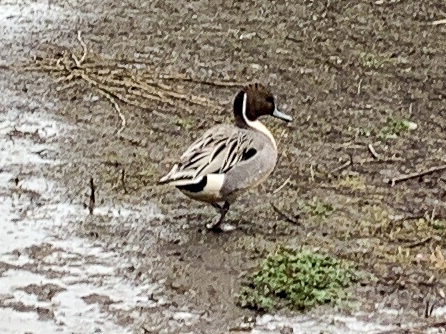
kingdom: Animalia
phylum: Chordata
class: Aves
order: Anseriformes
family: Anatidae
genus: Anas
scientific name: Anas acuta
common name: Northern pintail
